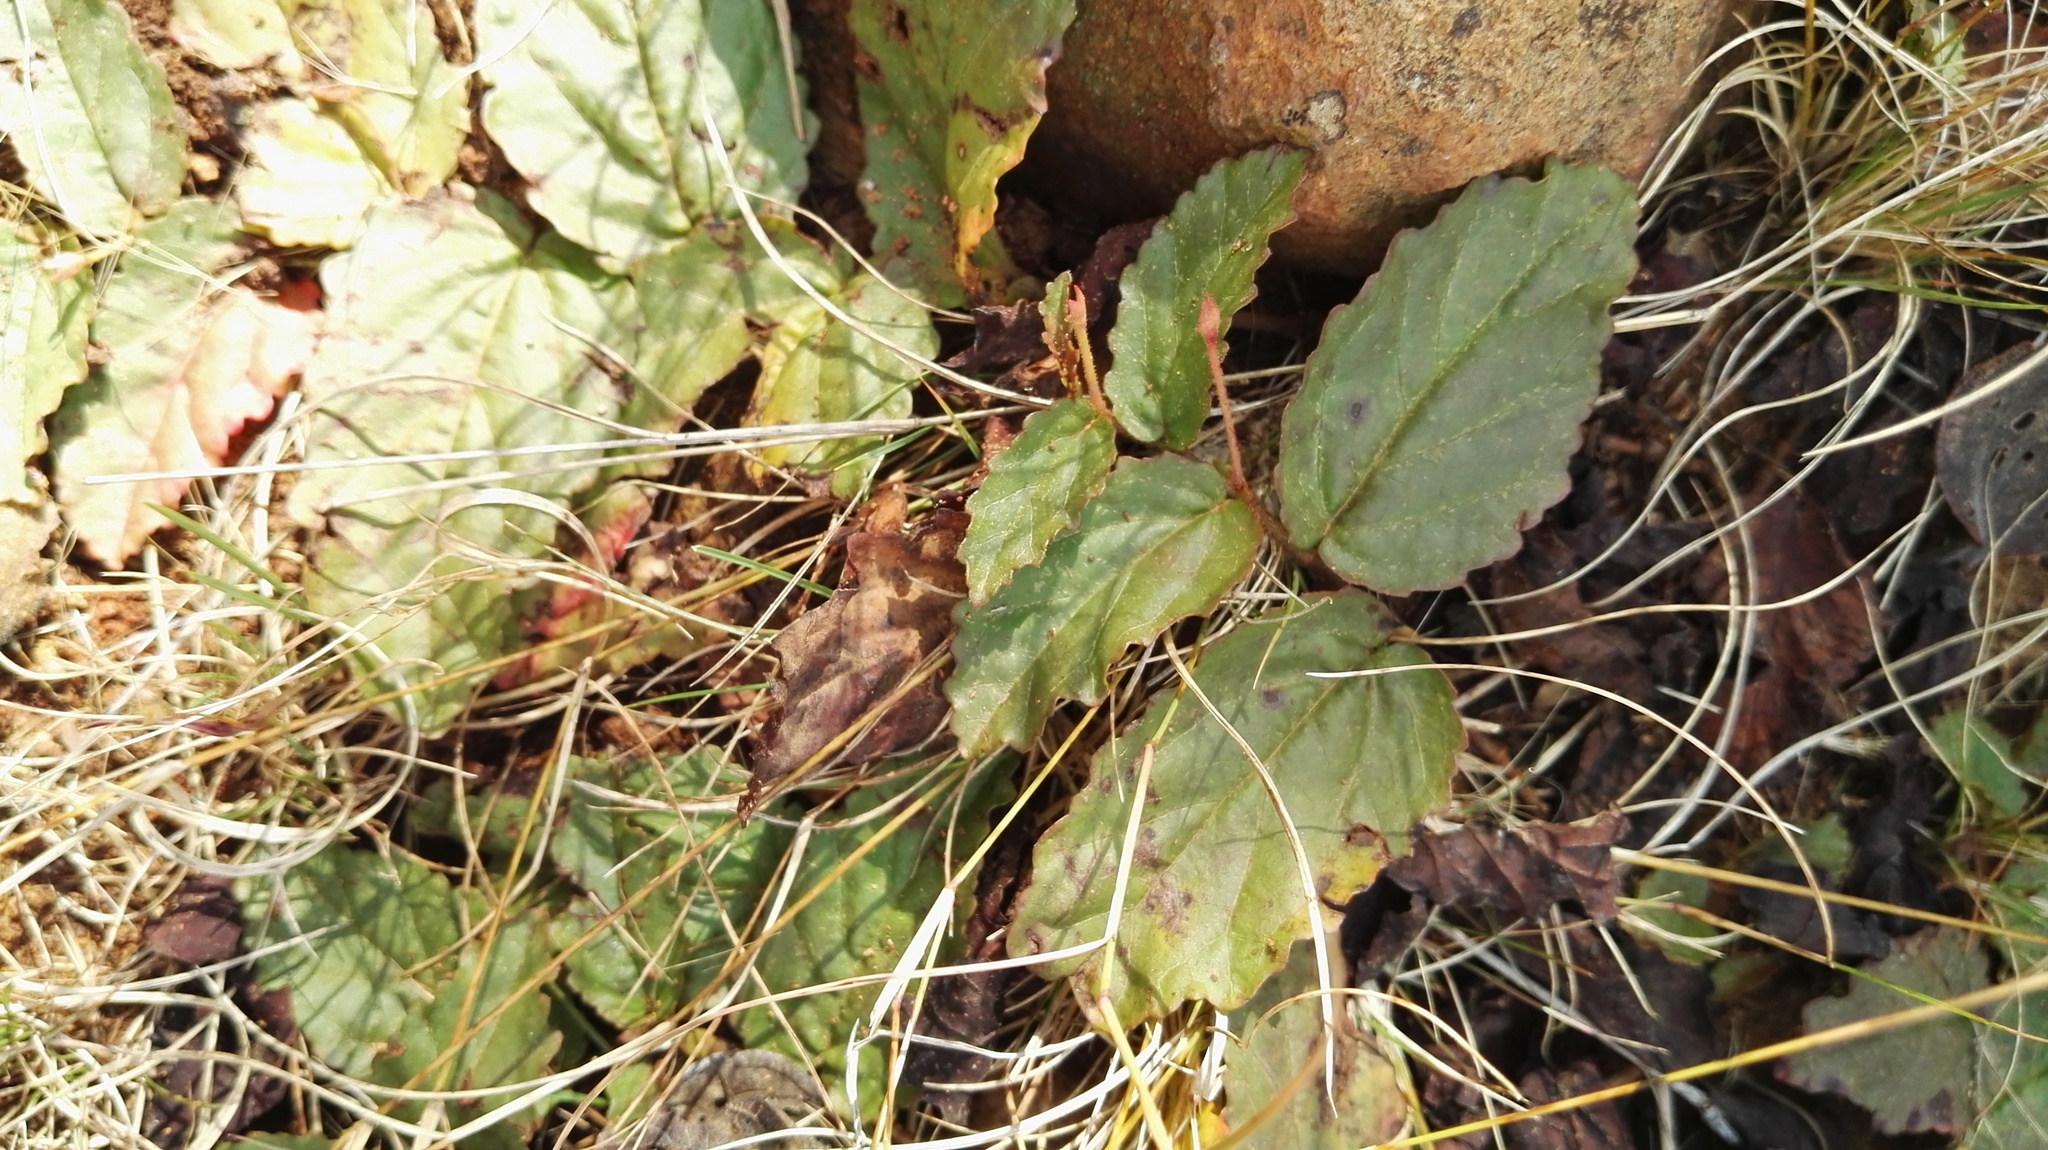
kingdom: Plantae
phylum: Tracheophyta
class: Magnoliopsida
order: Malvales
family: Malvaceae
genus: Hermannia
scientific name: Hermannia depressa
